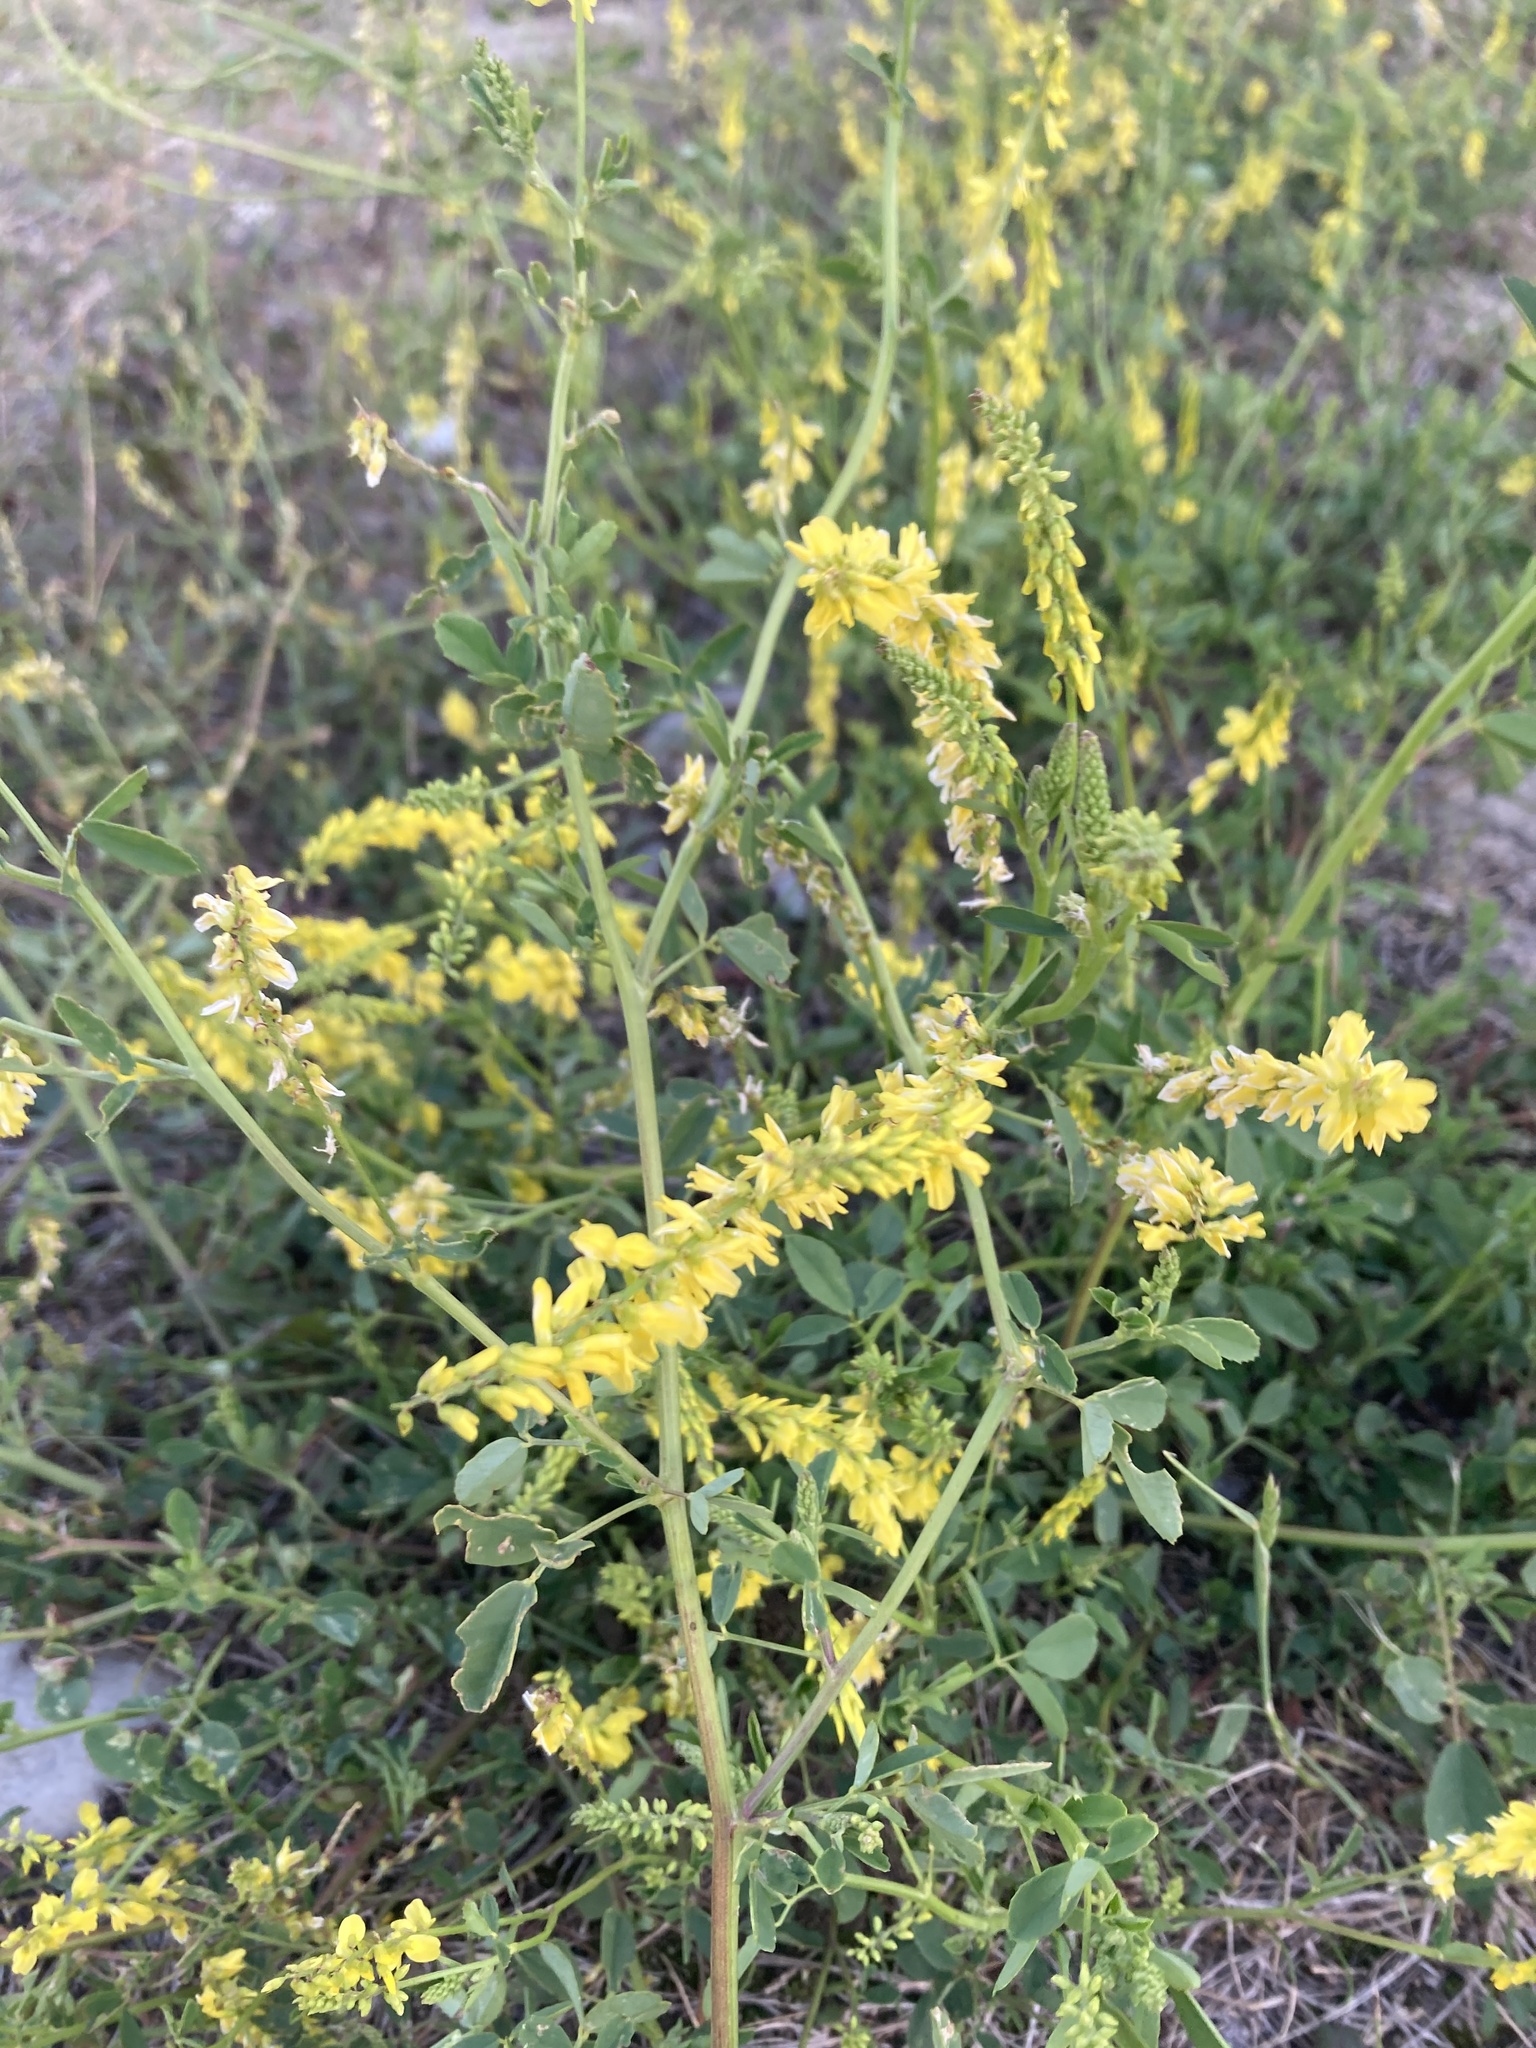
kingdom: Plantae
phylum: Tracheophyta
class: Magnoliopsida
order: Fabales
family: Fabaceae
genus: Melilotus
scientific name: Melilotus officinalis
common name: Sweetclover
